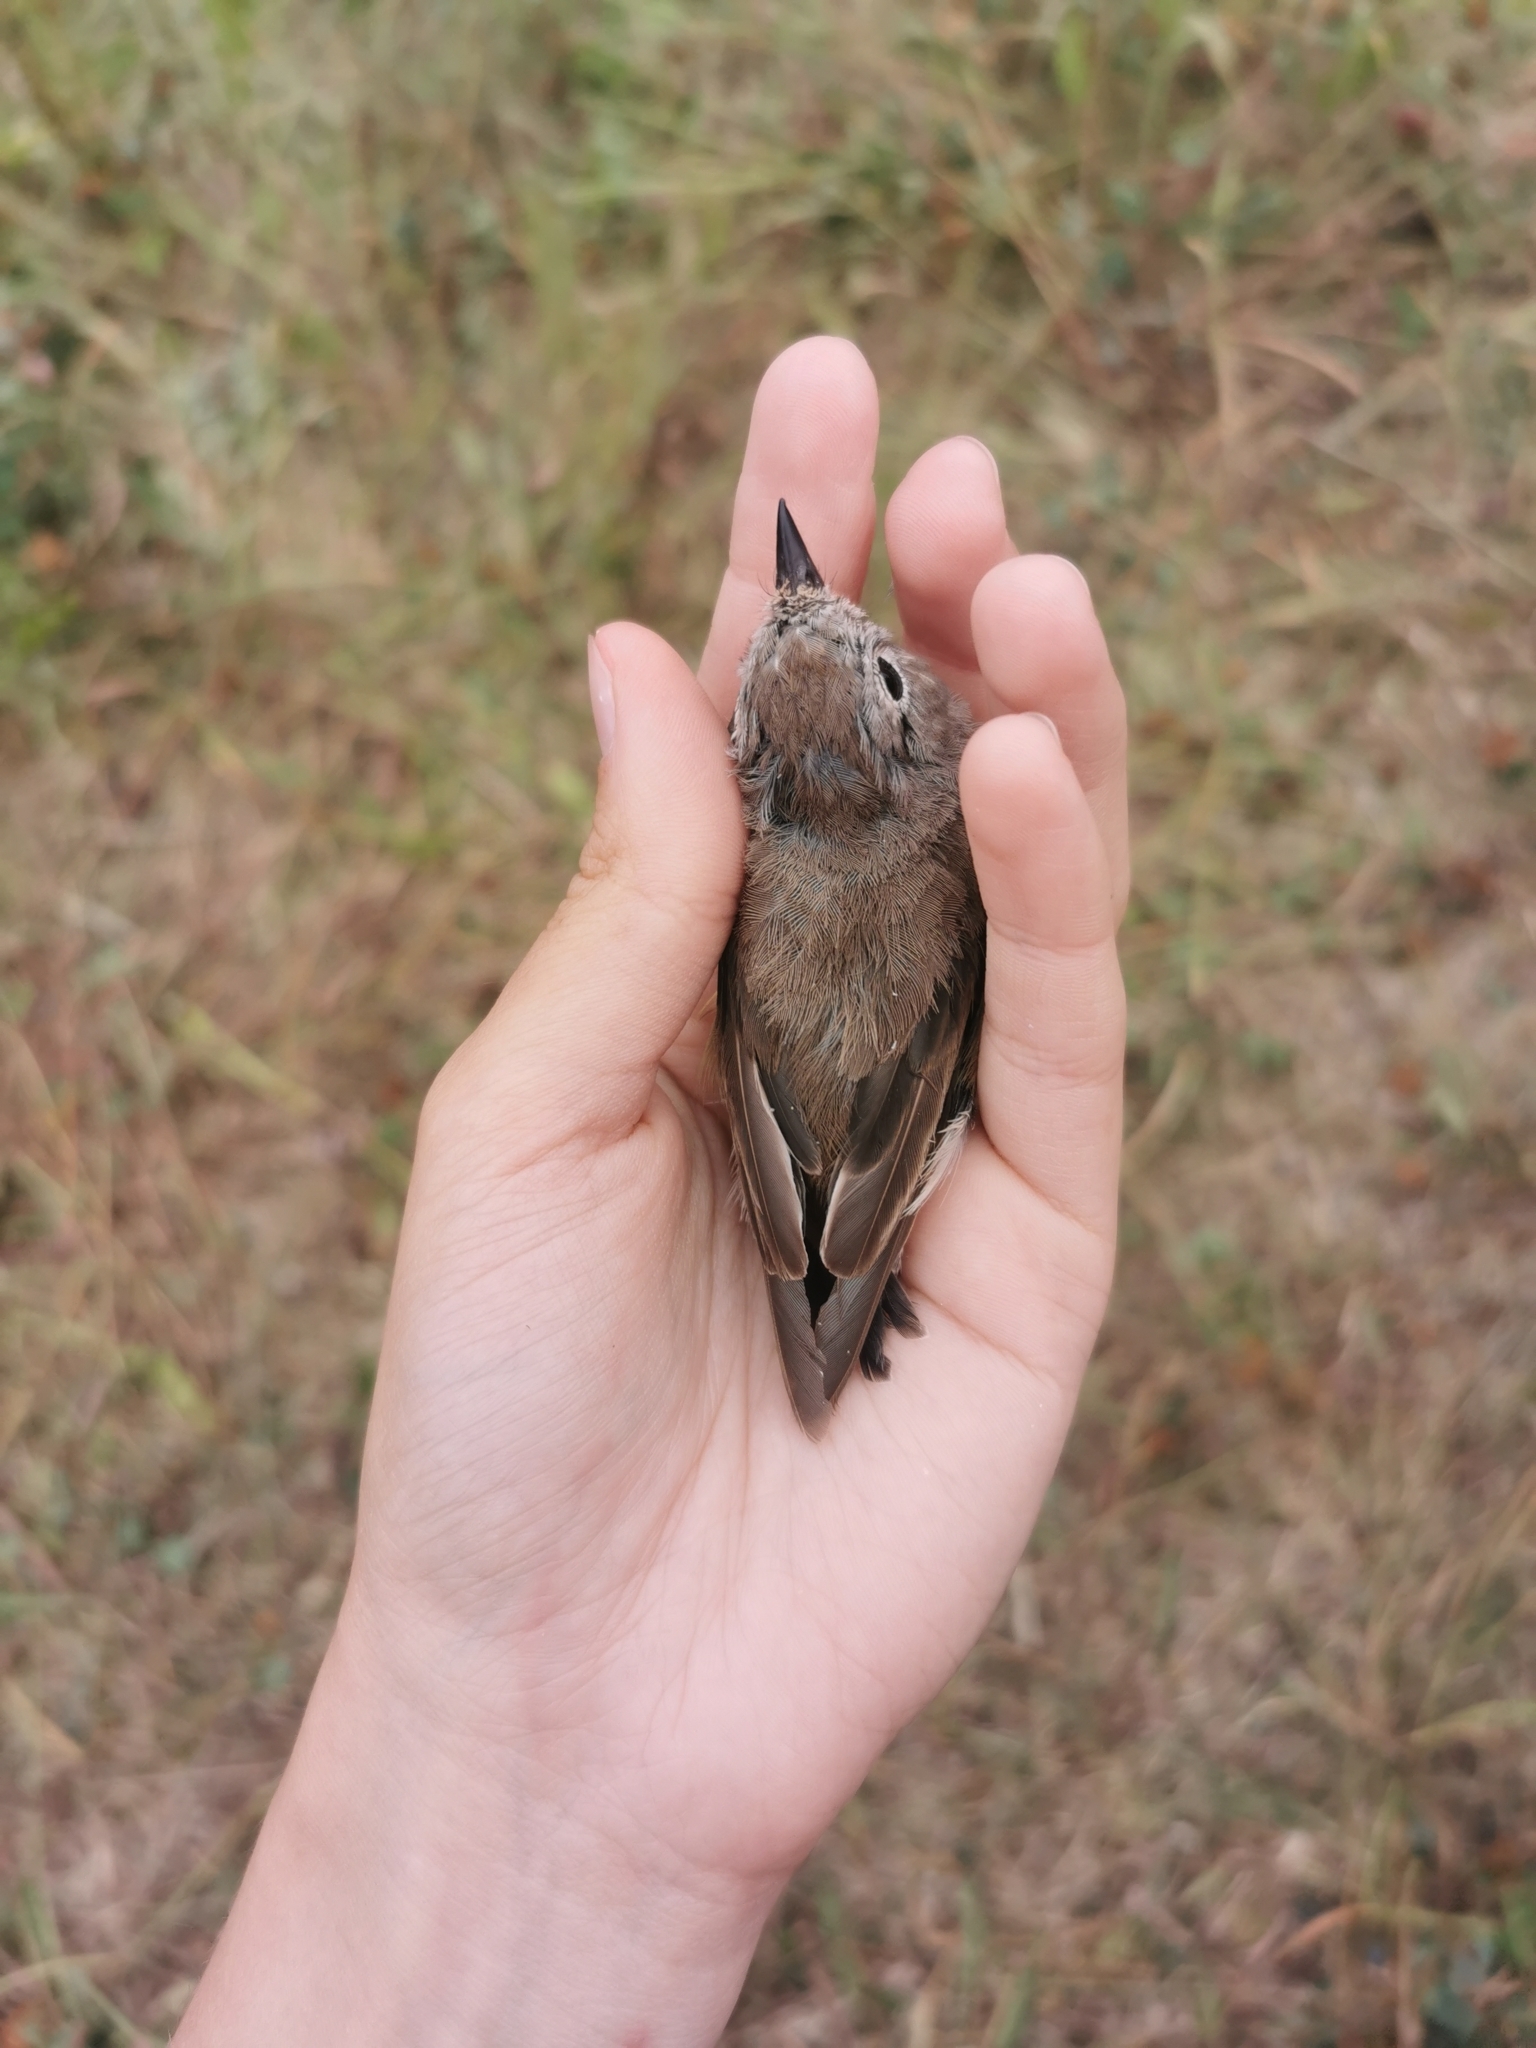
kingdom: Animalia
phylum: Chordata
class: Aves
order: Passeriformes
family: Muscicapidae
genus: Ficedula
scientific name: Ficedula albicilla
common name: Taiga flycatcher
